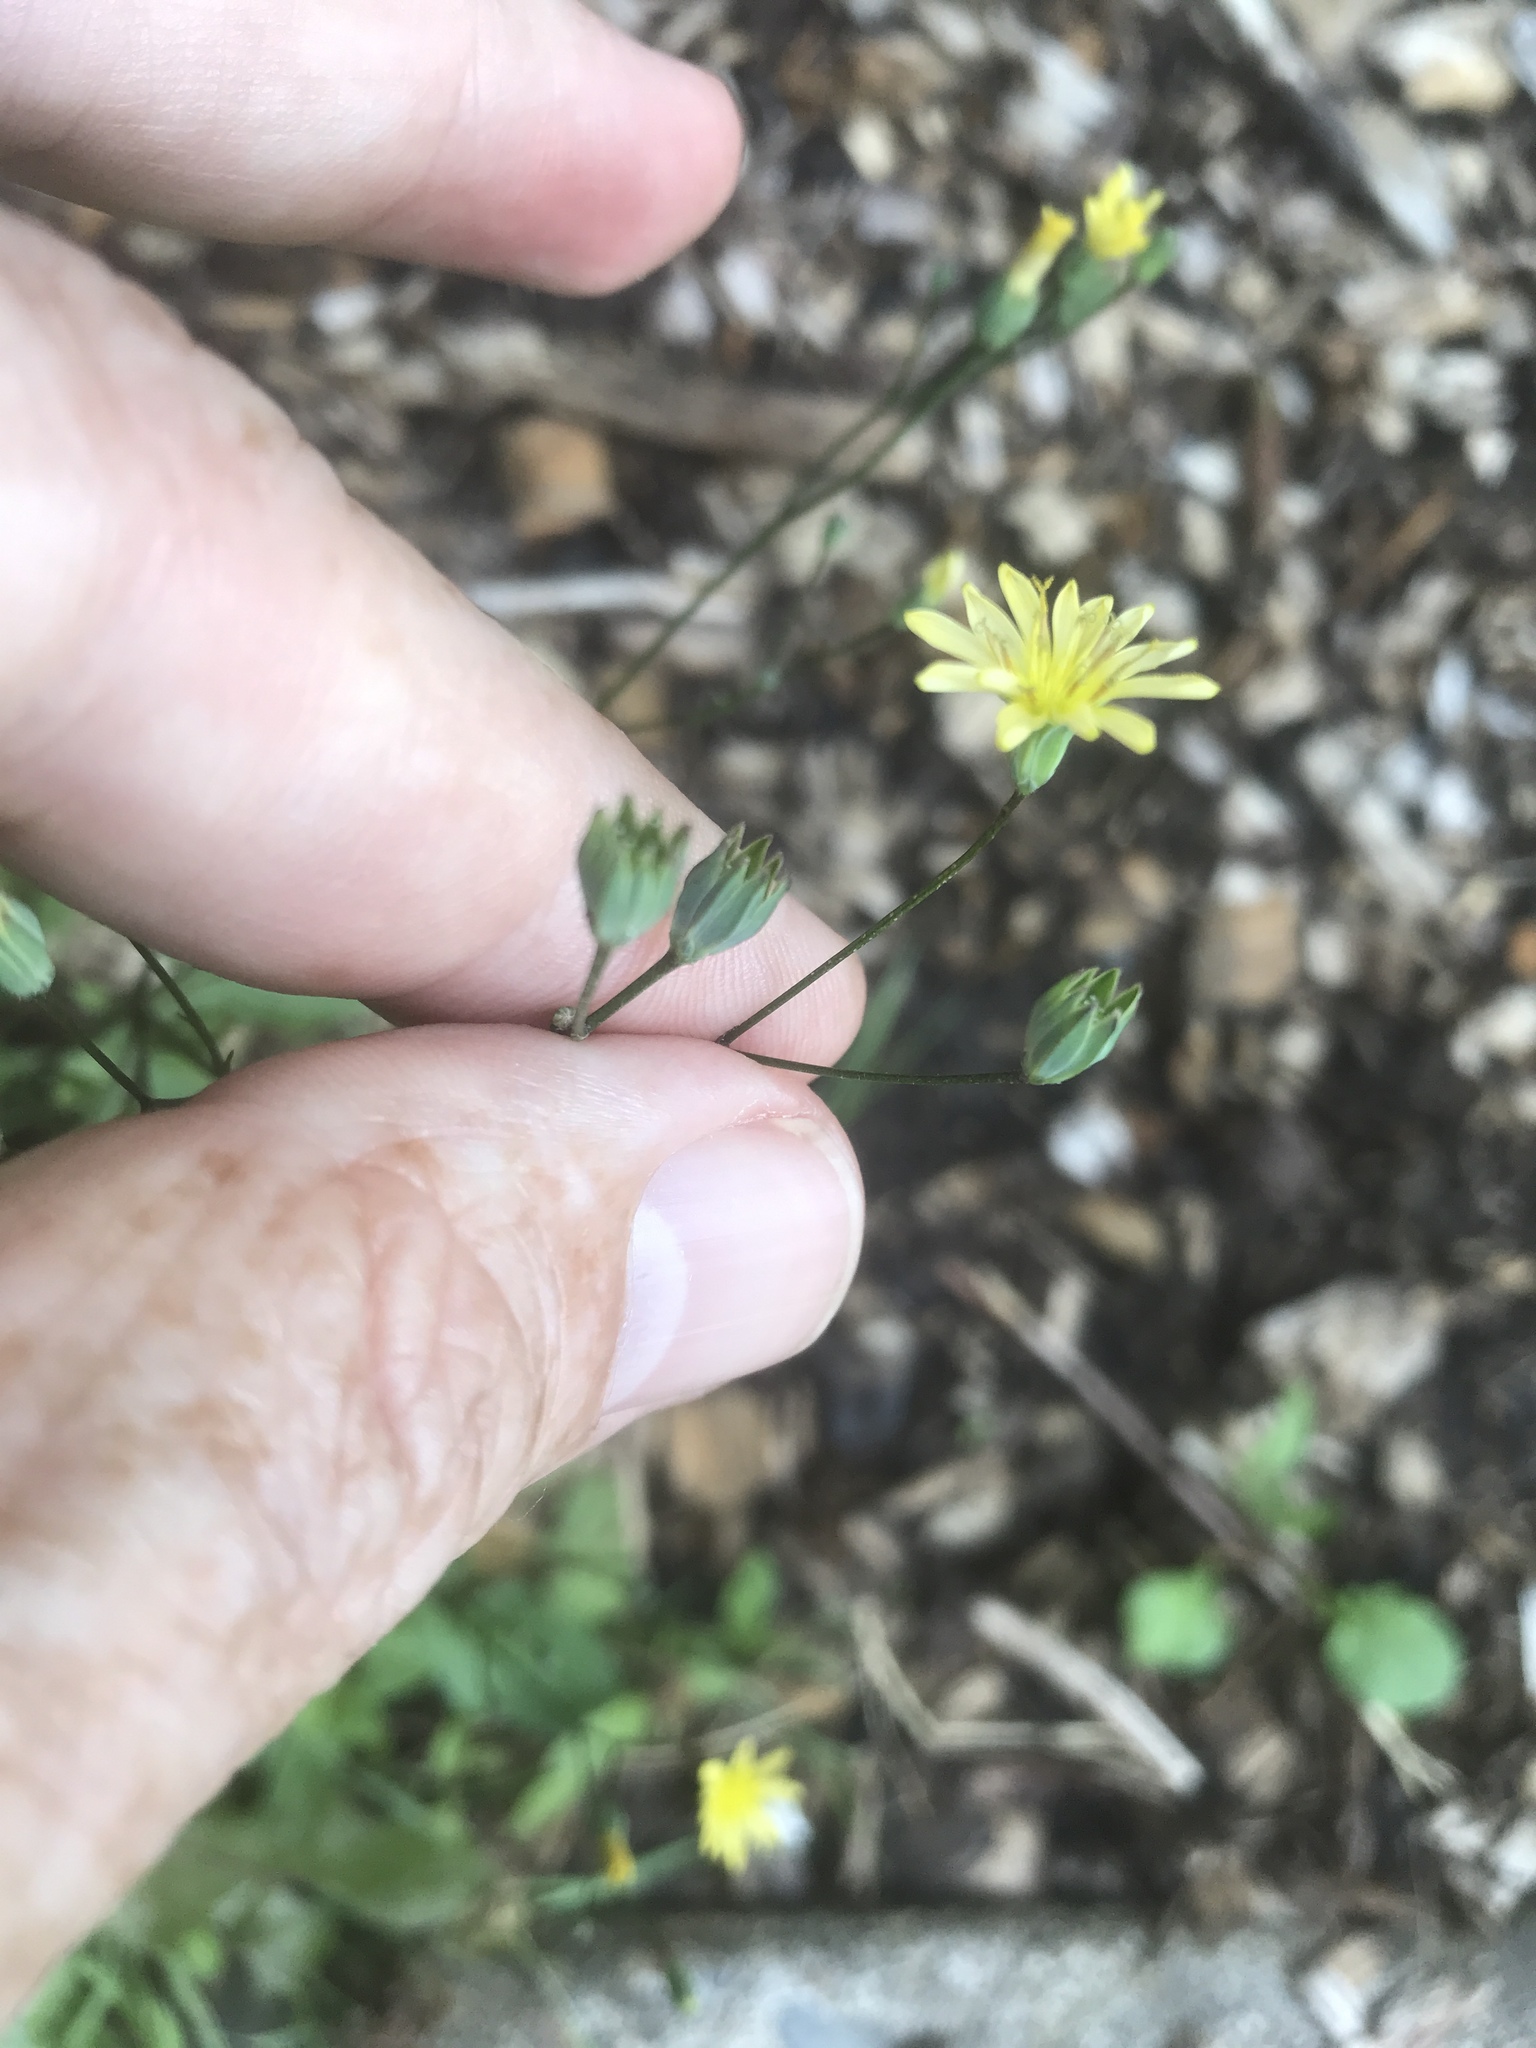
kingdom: Plantae
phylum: Tracheophyta
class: Magnoliopsida
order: Asterales
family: Asteraceae
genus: Lapsana
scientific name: Lapsana communis
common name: Nipplewort
